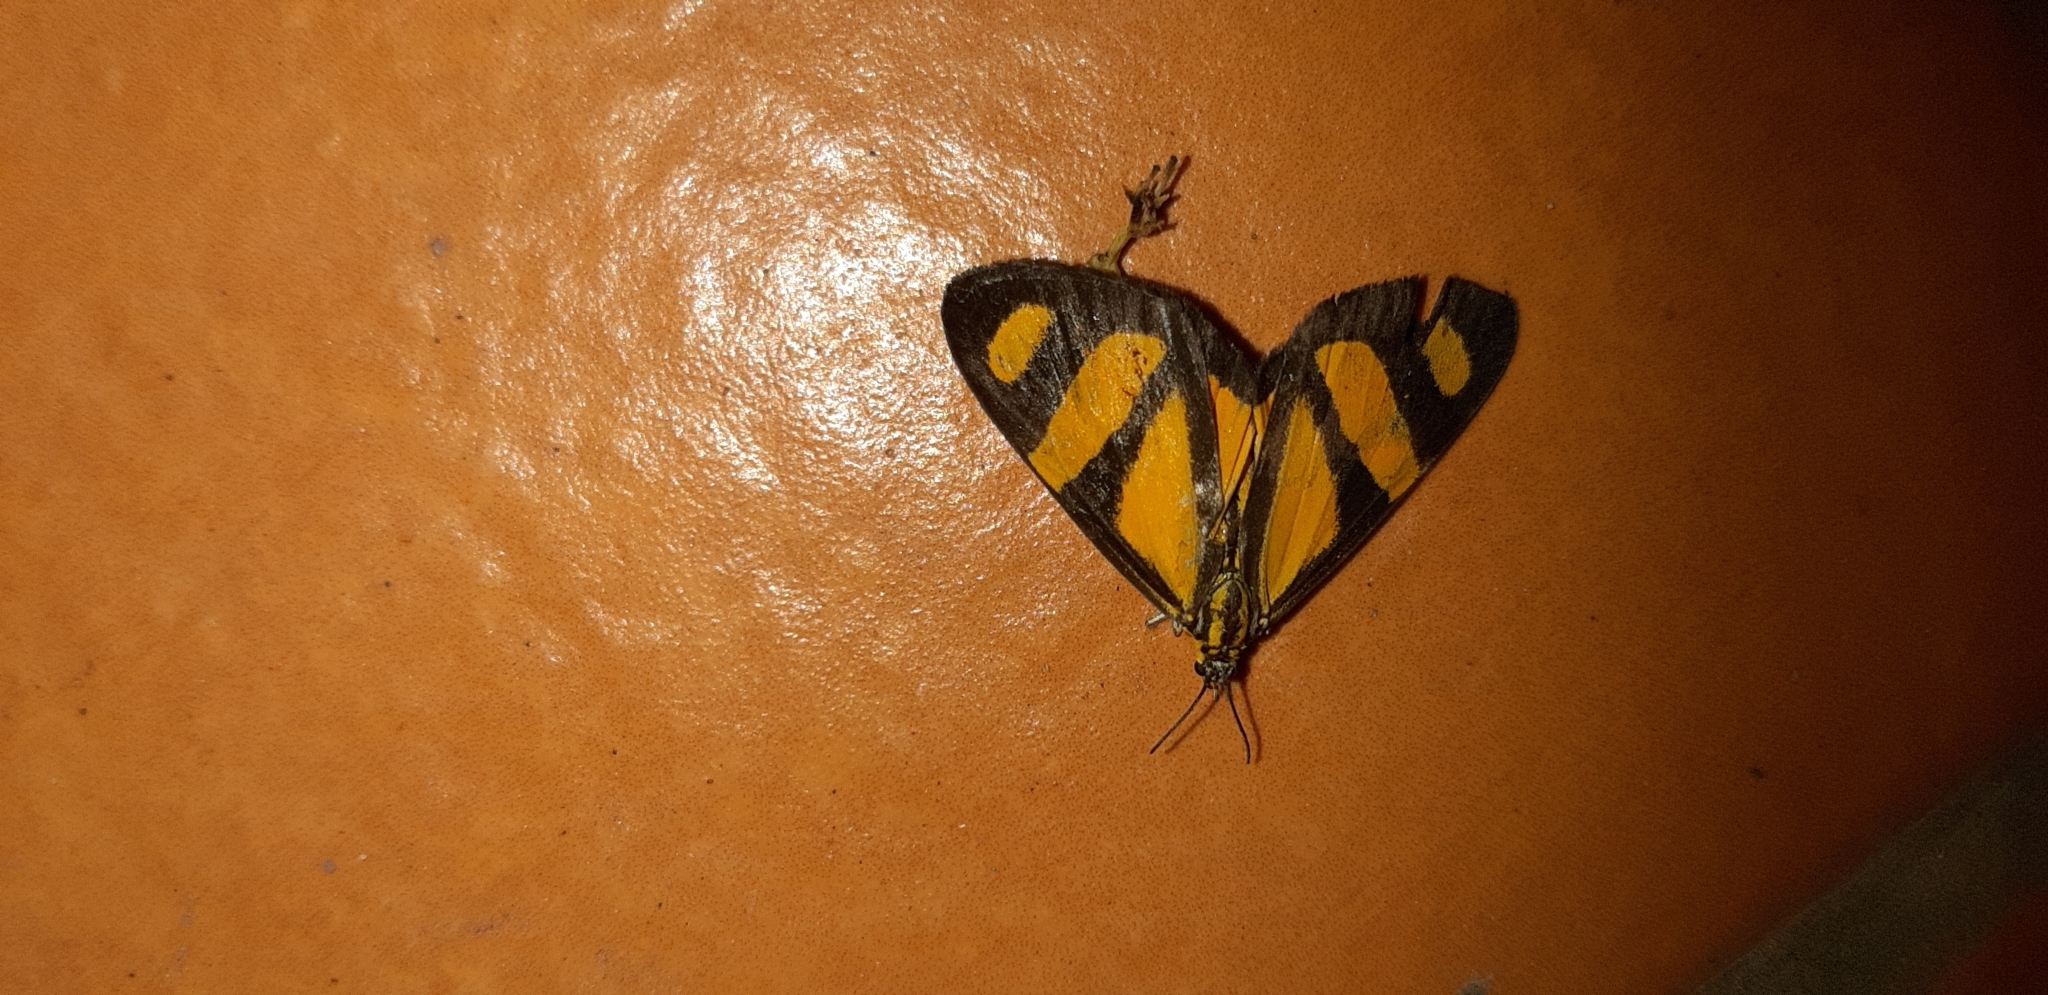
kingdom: Animalia
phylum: Arthropoda
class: Insecta
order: Lepidoptera
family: Notodontidae
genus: Phaeochlaena
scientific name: Phaeochlaena solilucis
